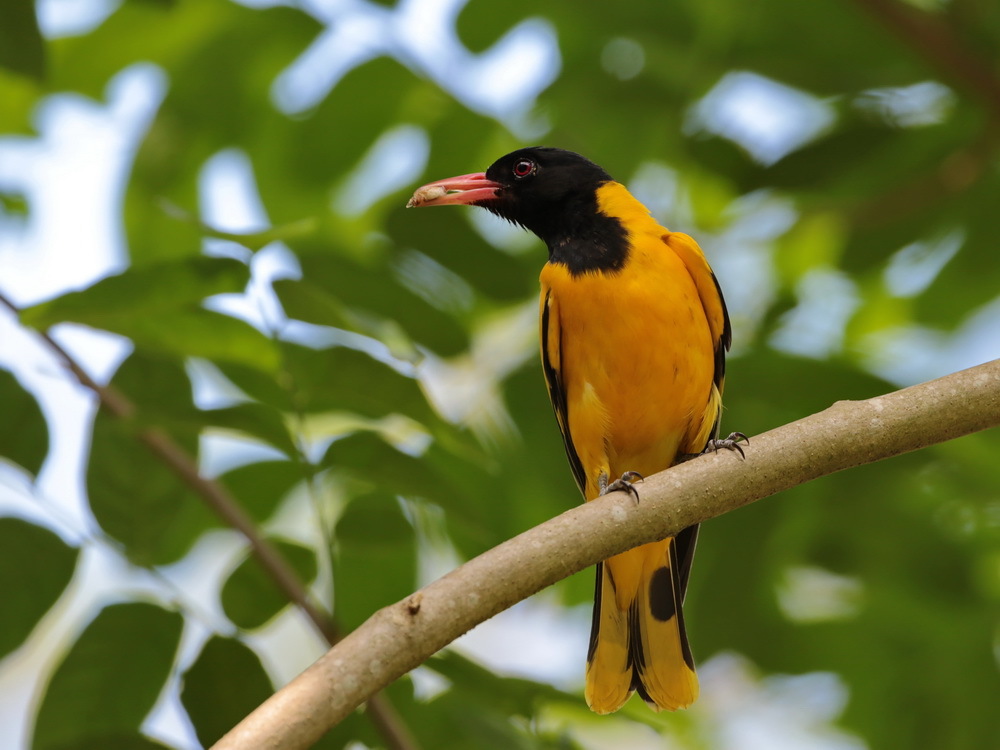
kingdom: Animalia
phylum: Chordata
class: Aves
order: Passeriformes
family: Oriolidae
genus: Oriolus
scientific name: Oriolus xanthornus
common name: Black-hooded oriole
